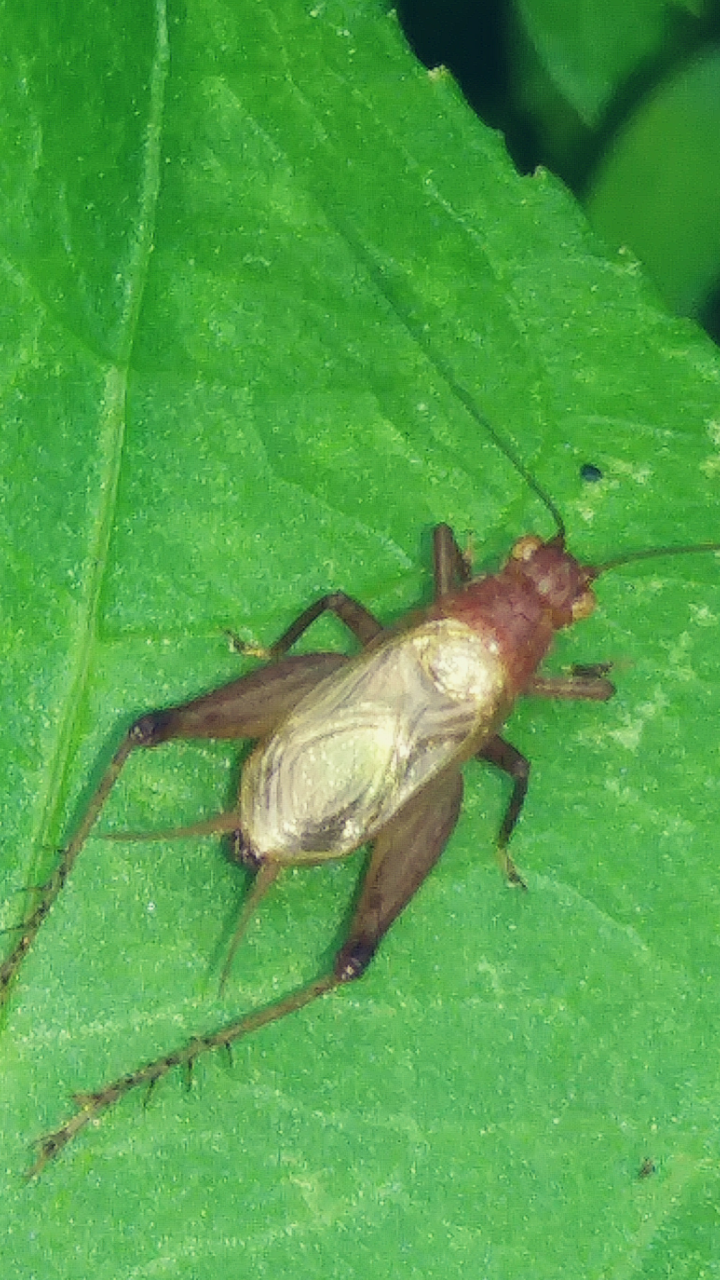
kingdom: Animalia
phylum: Arthropoda
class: Insecta
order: Orthoptera
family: Trigonidiidae
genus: Anaxipha
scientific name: Anaxipha vernalis
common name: Spring trig
